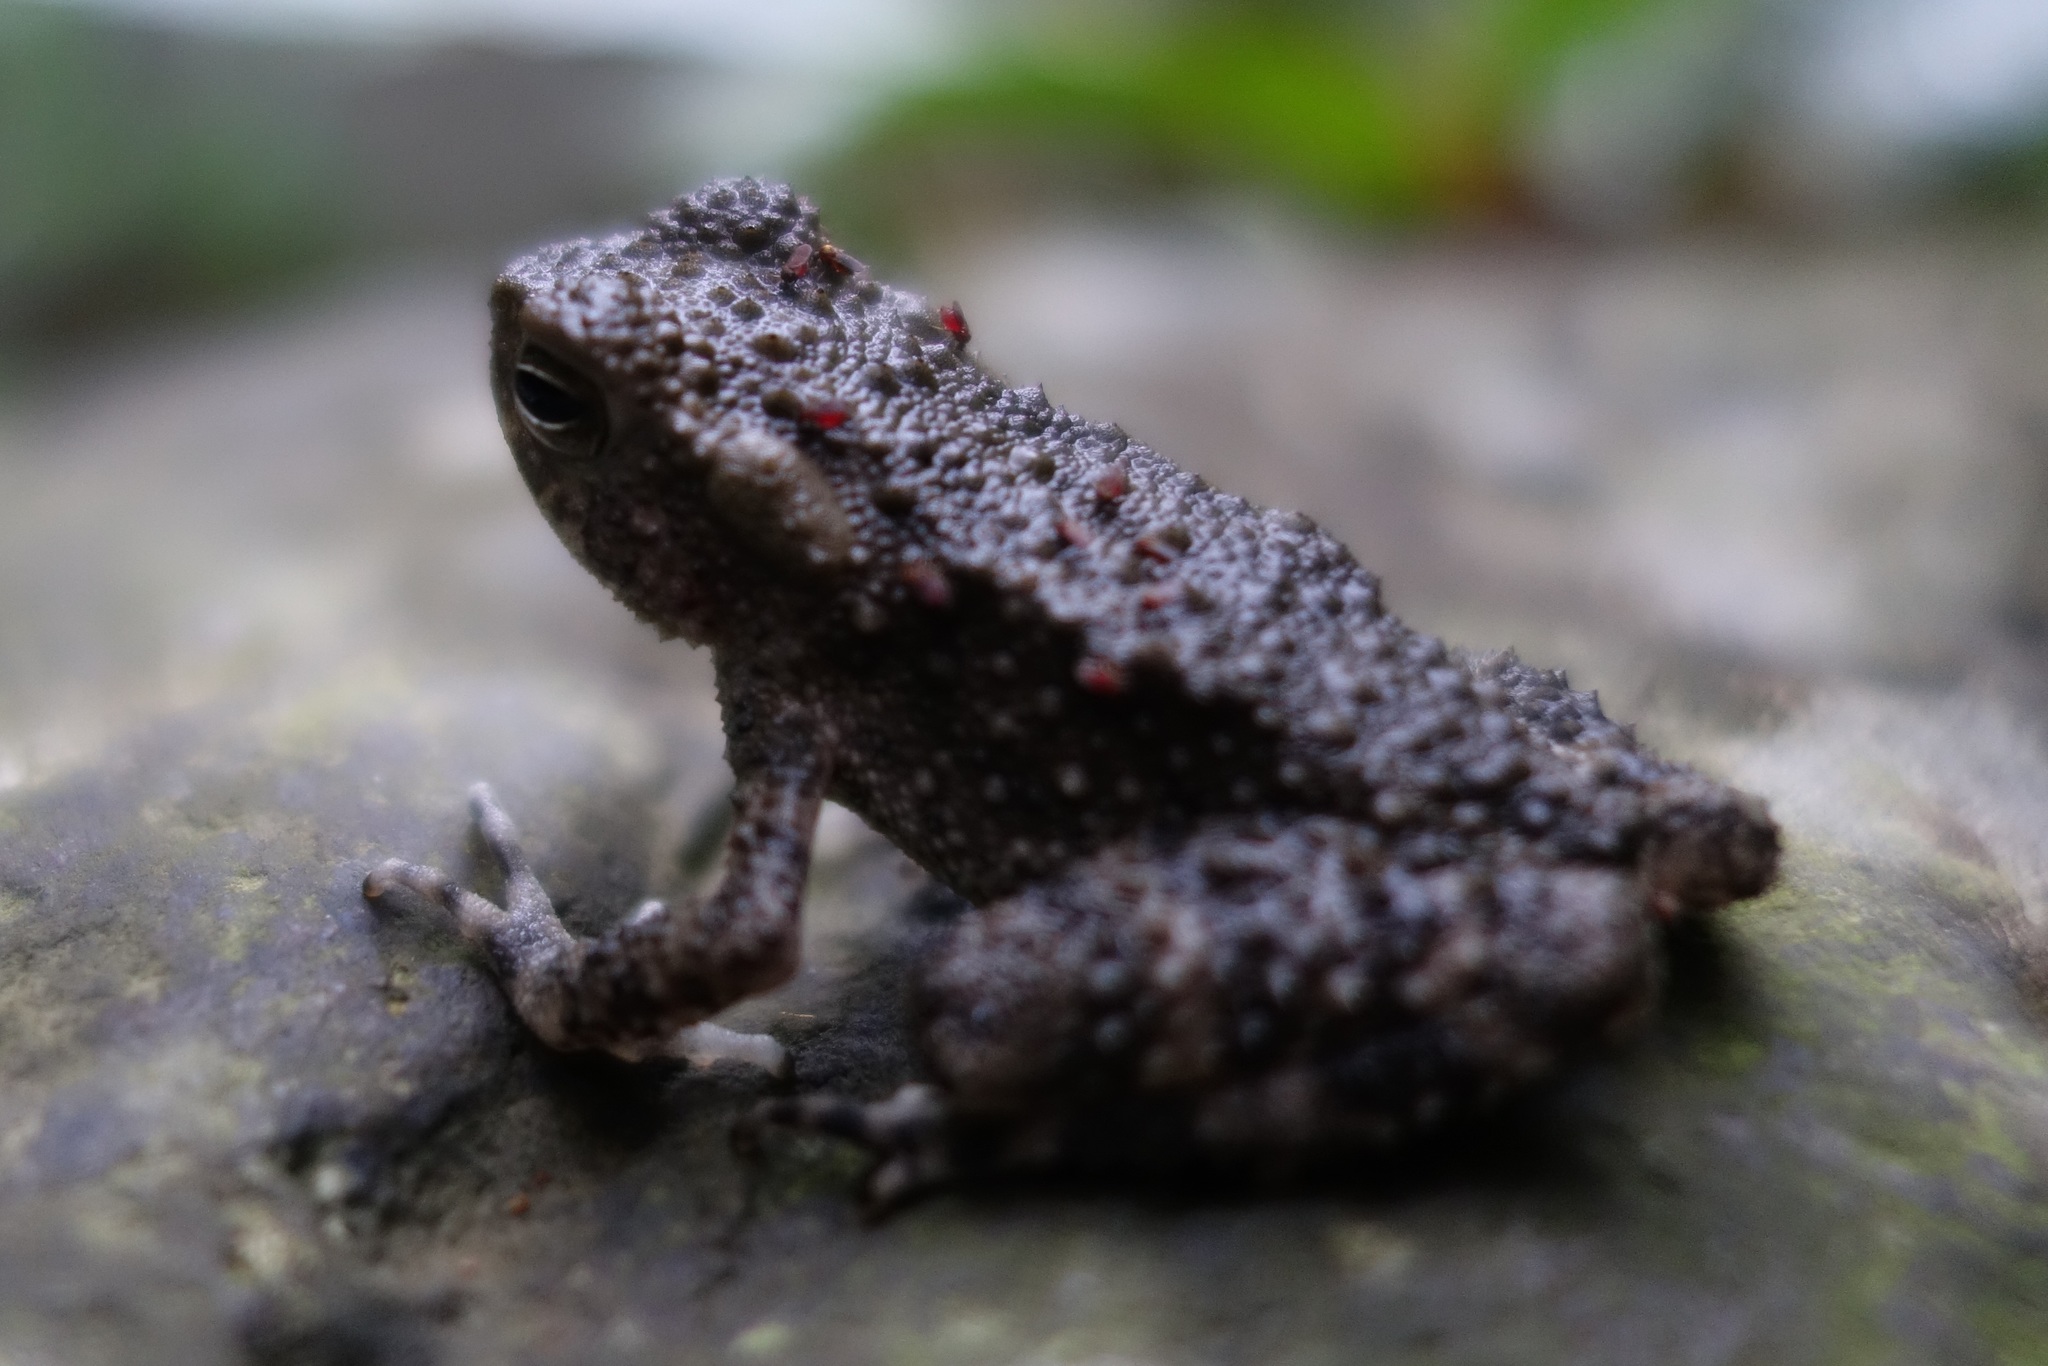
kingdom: Animalia
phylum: Chordata
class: Amphibia
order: Anura
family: Bufonidae
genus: Phrynoidis
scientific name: Phrynoidis asper
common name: Asian giant toad
